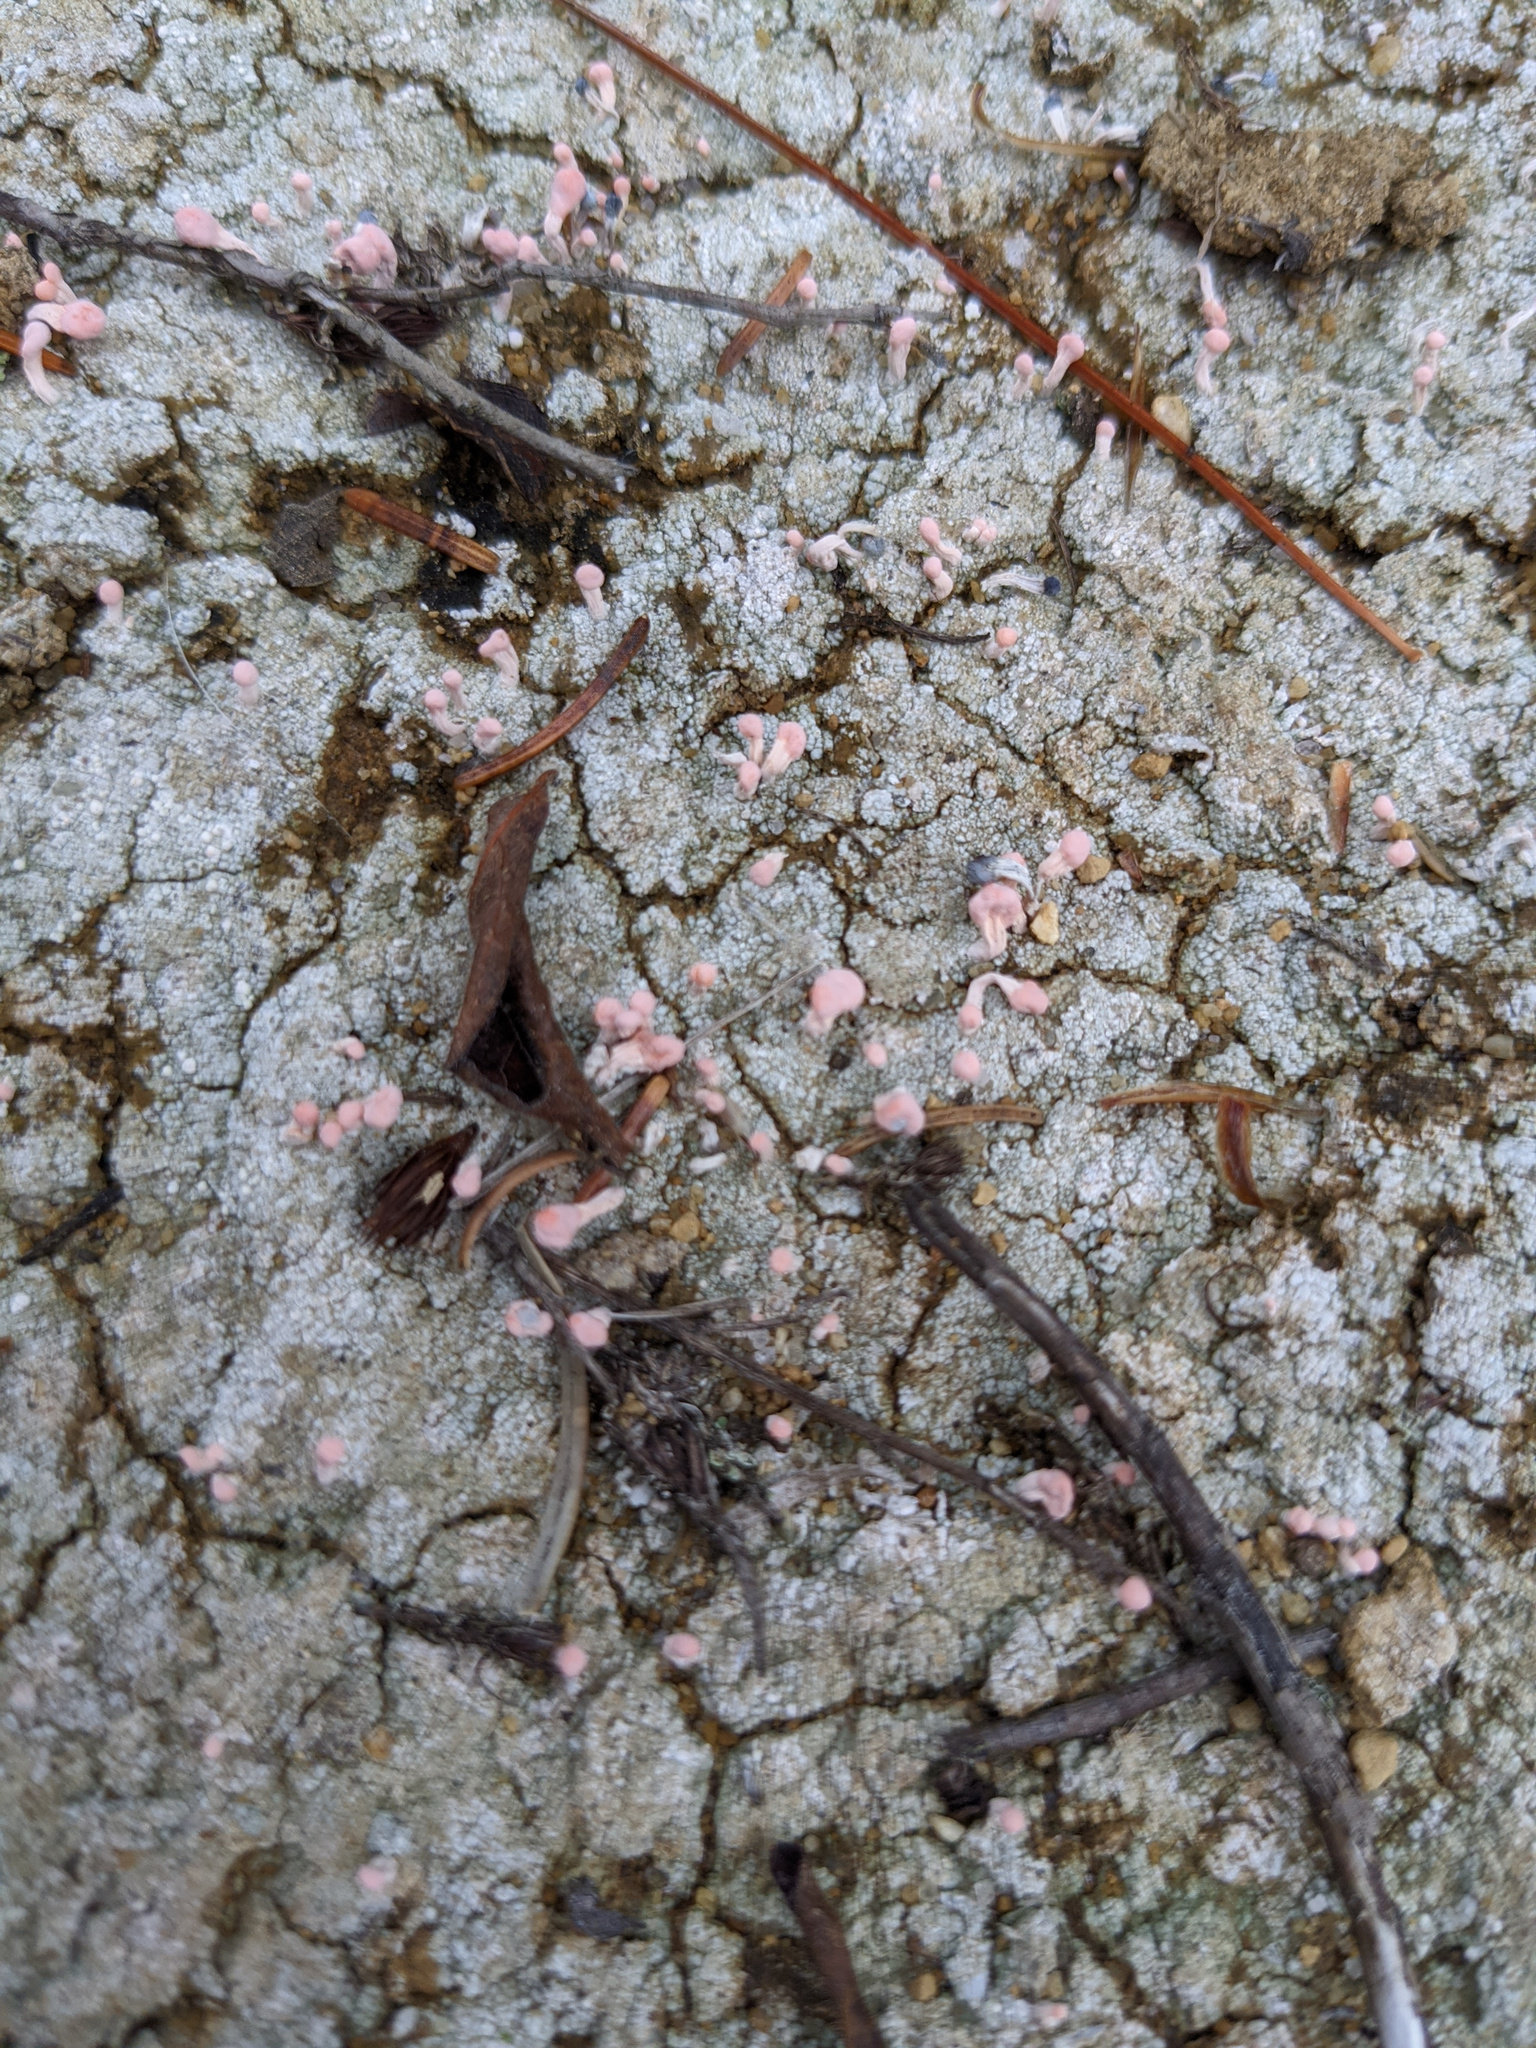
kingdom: Fungi
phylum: Ascomycota
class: Lecanoromycetes
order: Pertusariales
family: Icmadophilaceae
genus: Dibaeis
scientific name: Dibaeis baeomyces
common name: Pink earth lichen
